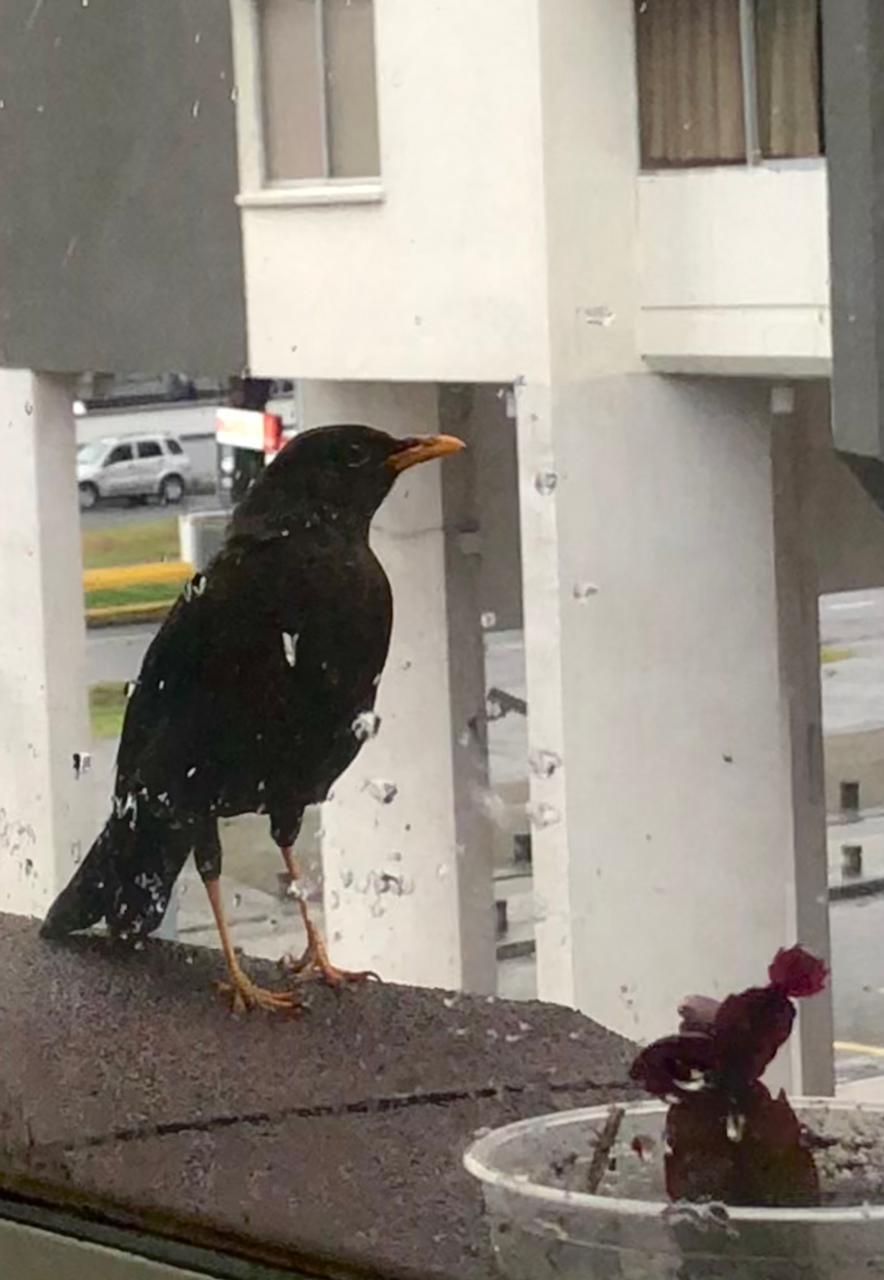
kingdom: Animalia
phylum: Chordata
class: Aves
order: Passeriformes
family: Turdidae
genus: Turdus
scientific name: Turdus fuscater
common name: Great thrush
